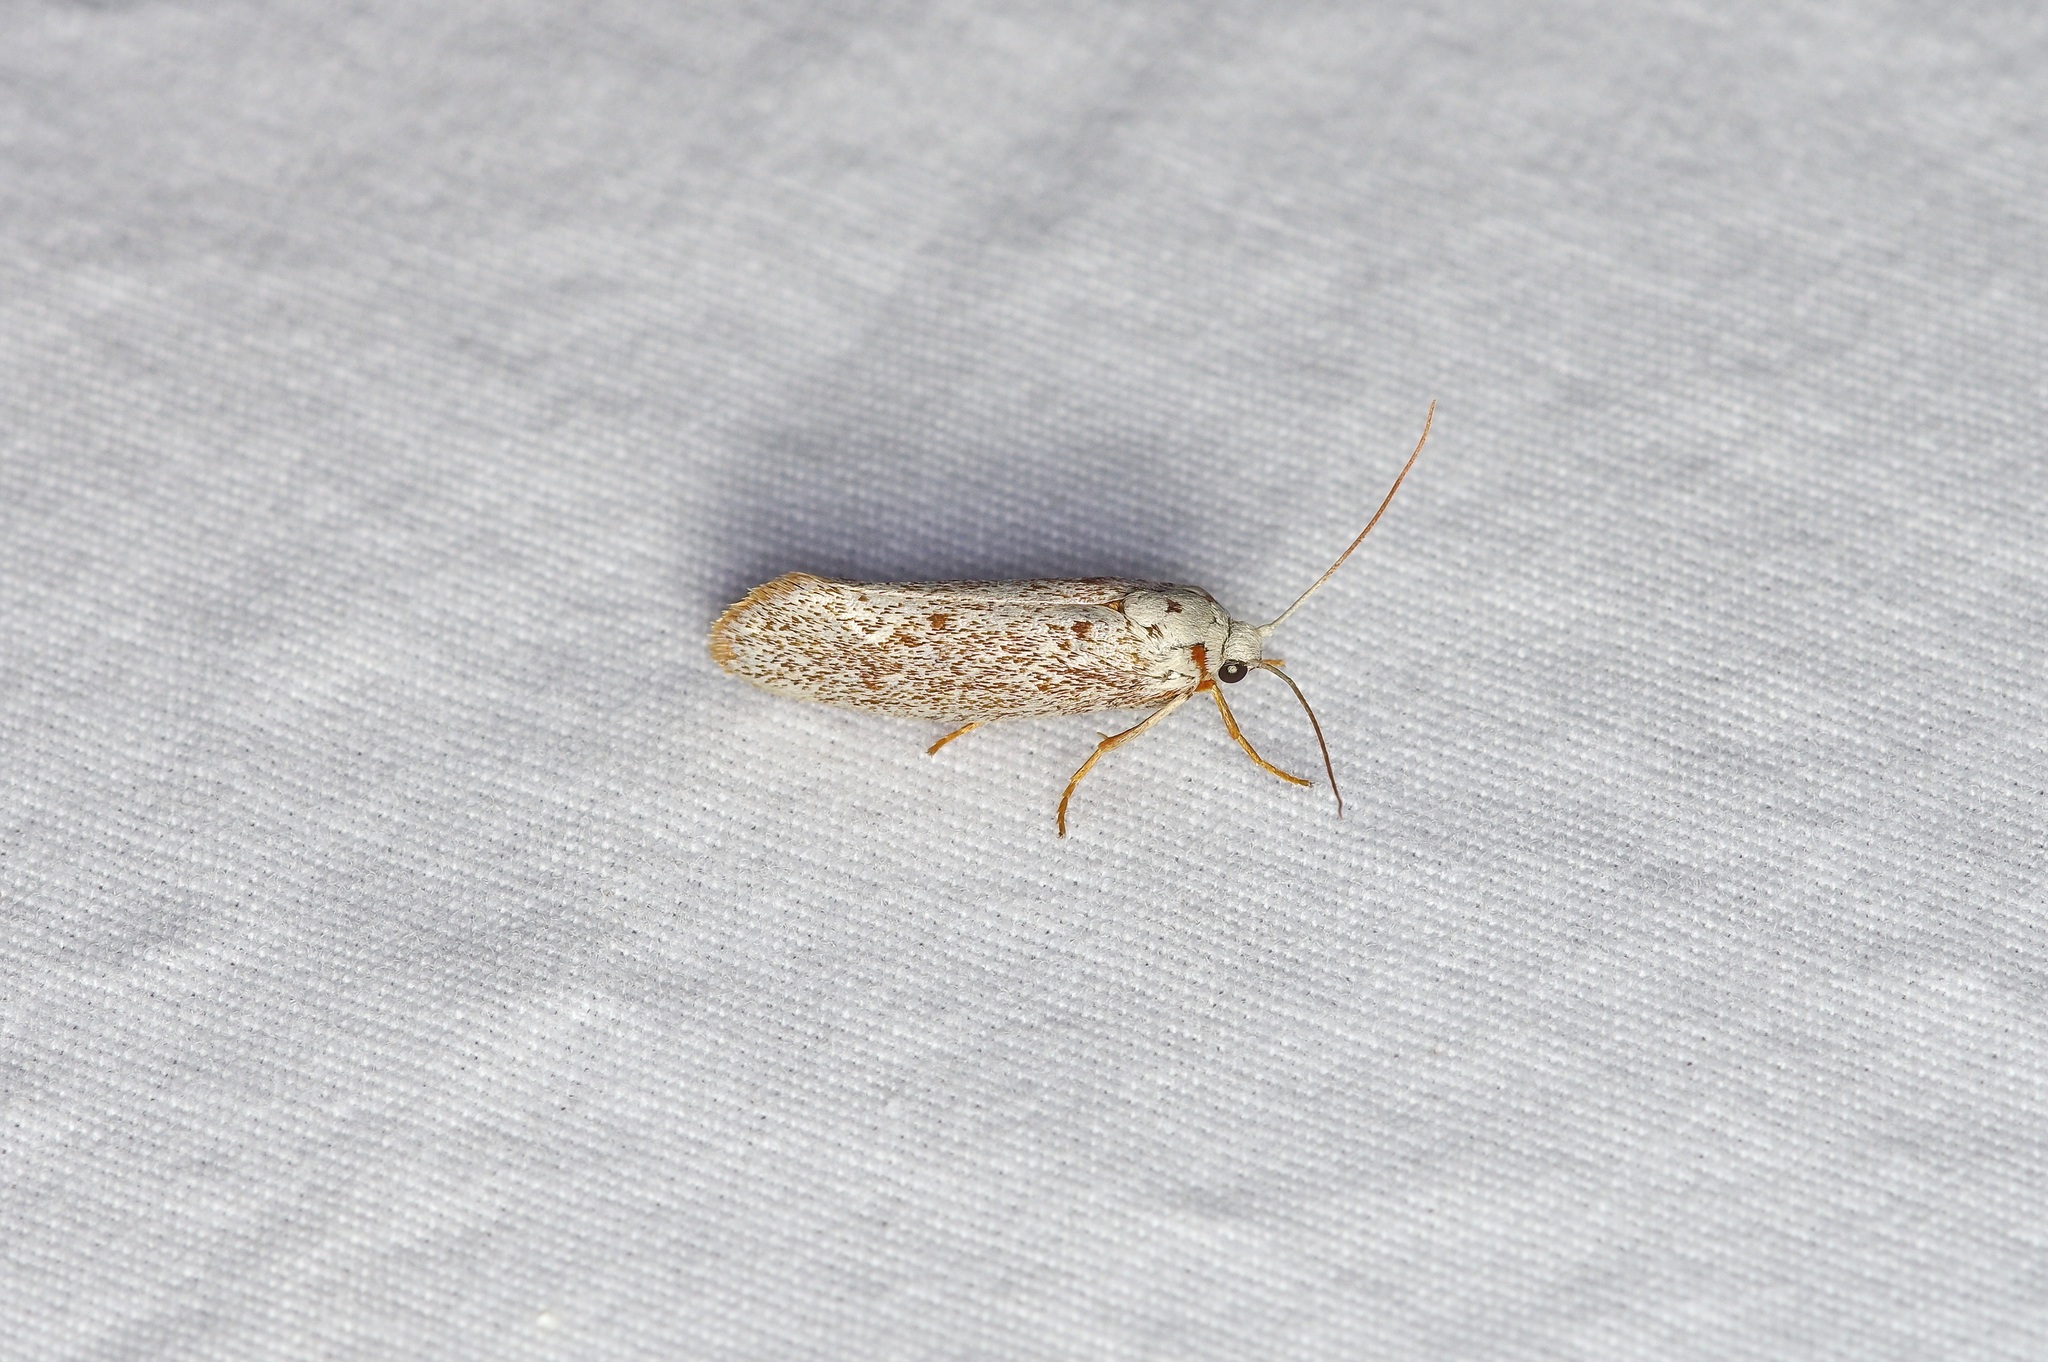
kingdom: Animalia
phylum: Arthropoda
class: Insecta
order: Lepidoptera
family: Lacturidae
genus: Lactura
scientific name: Lactura
